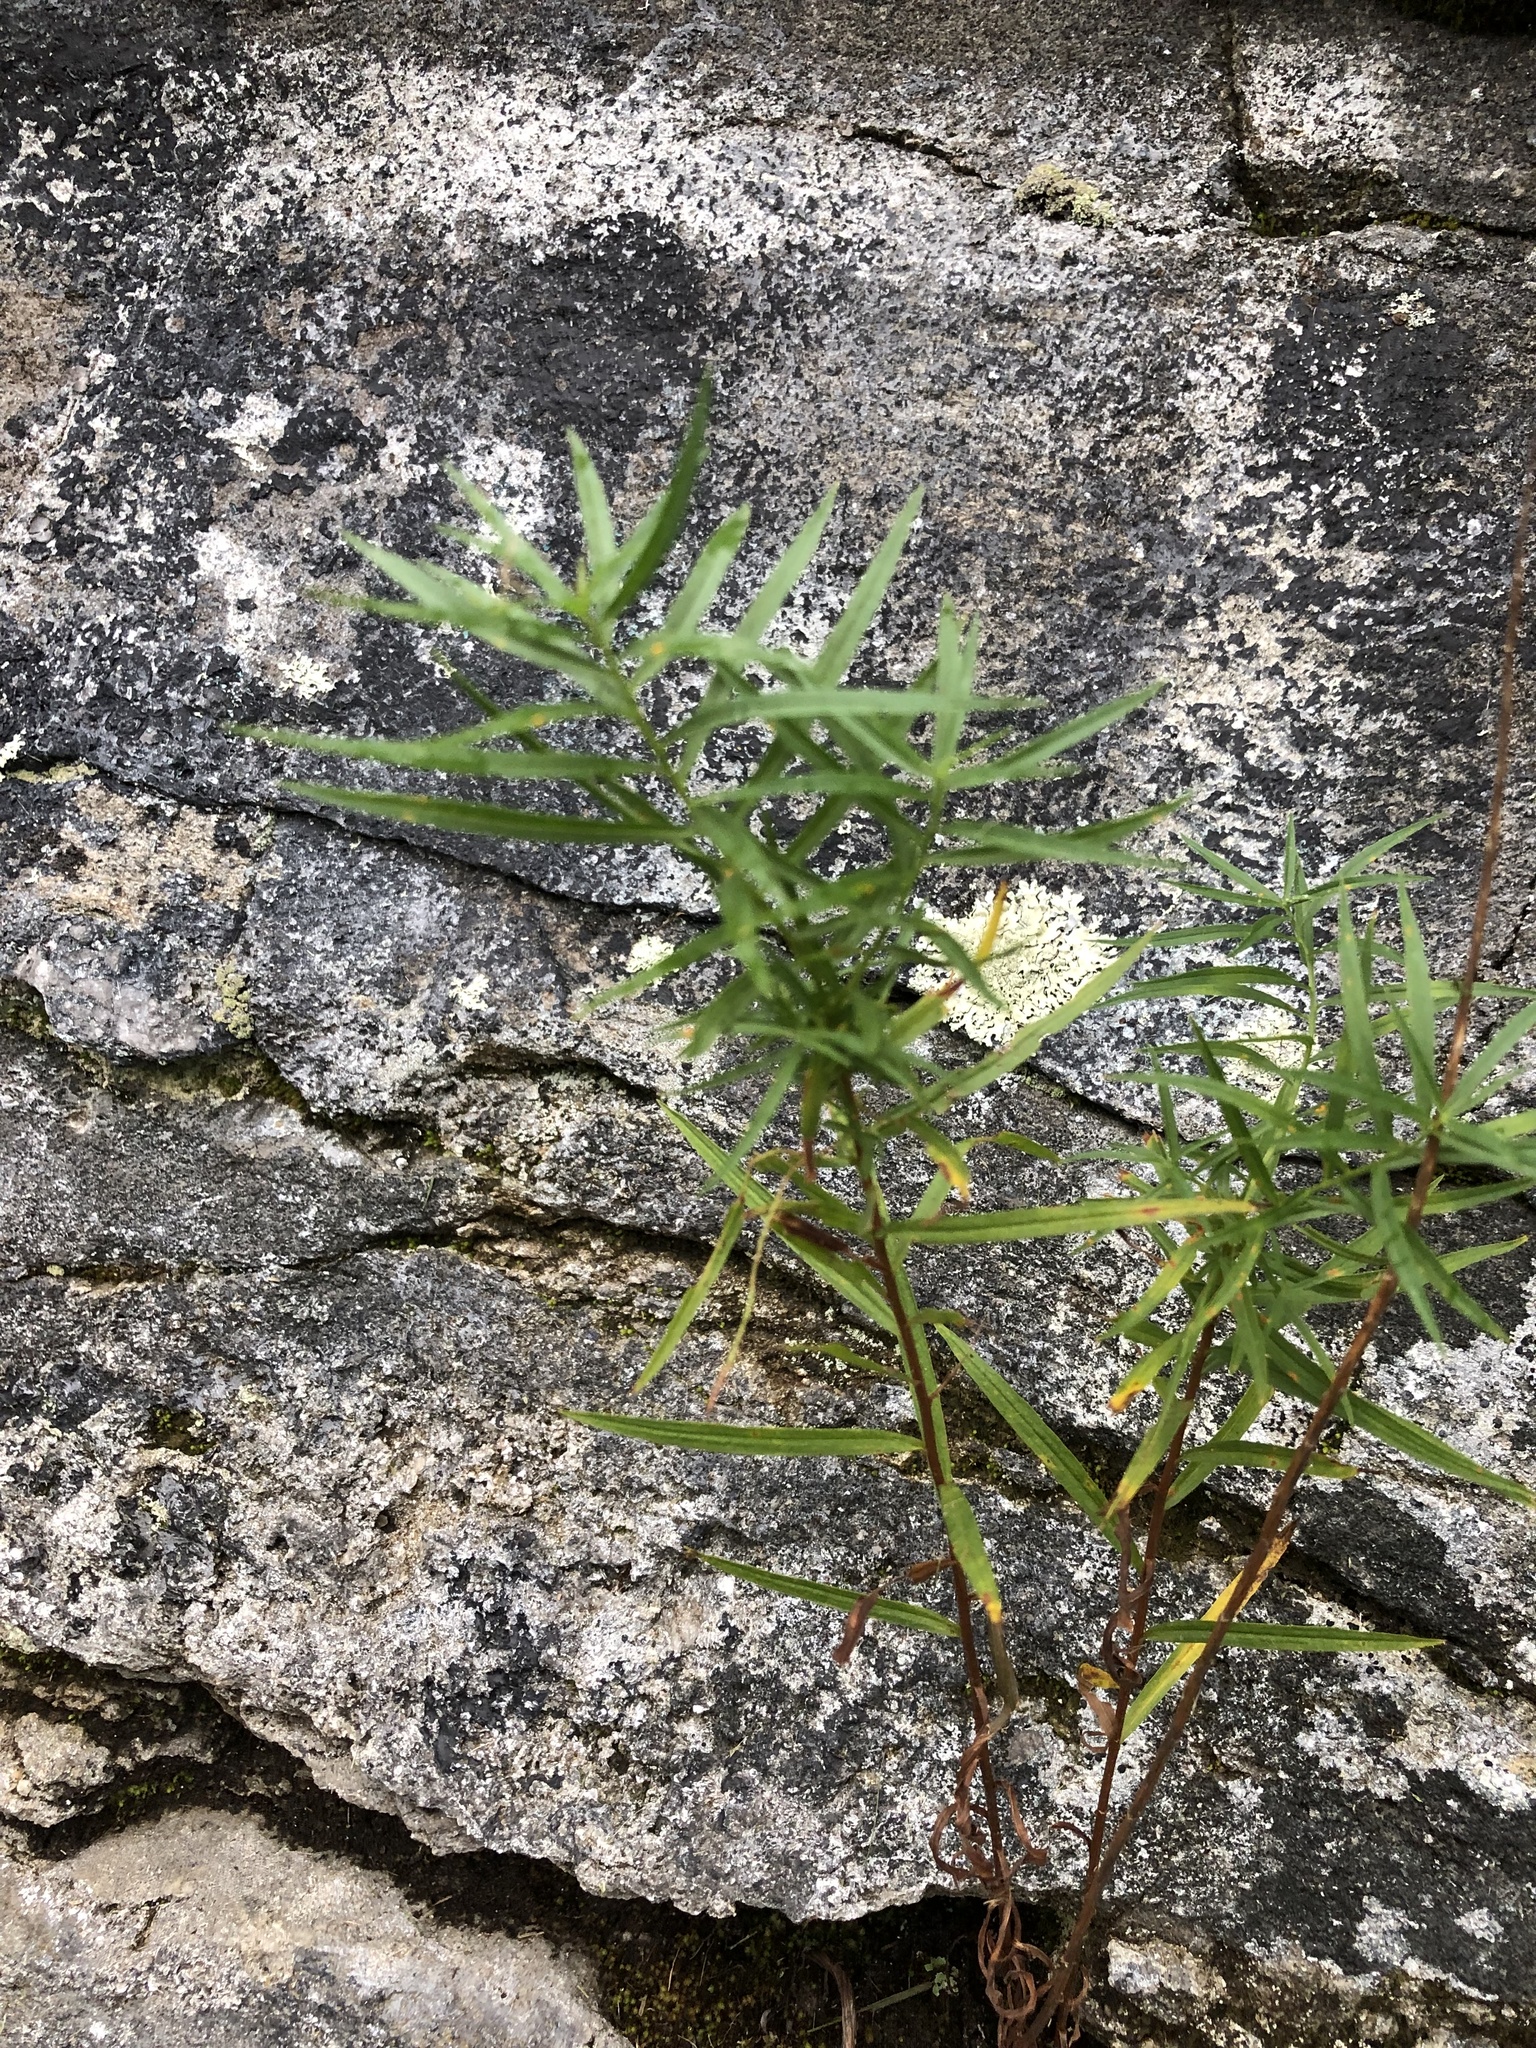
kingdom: Plantae
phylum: Tracheophyta
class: Magnoliopsida
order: Asterales
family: Asteraceae
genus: Euthamia
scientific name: Euthamia graminifolia
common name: Common goldentop
